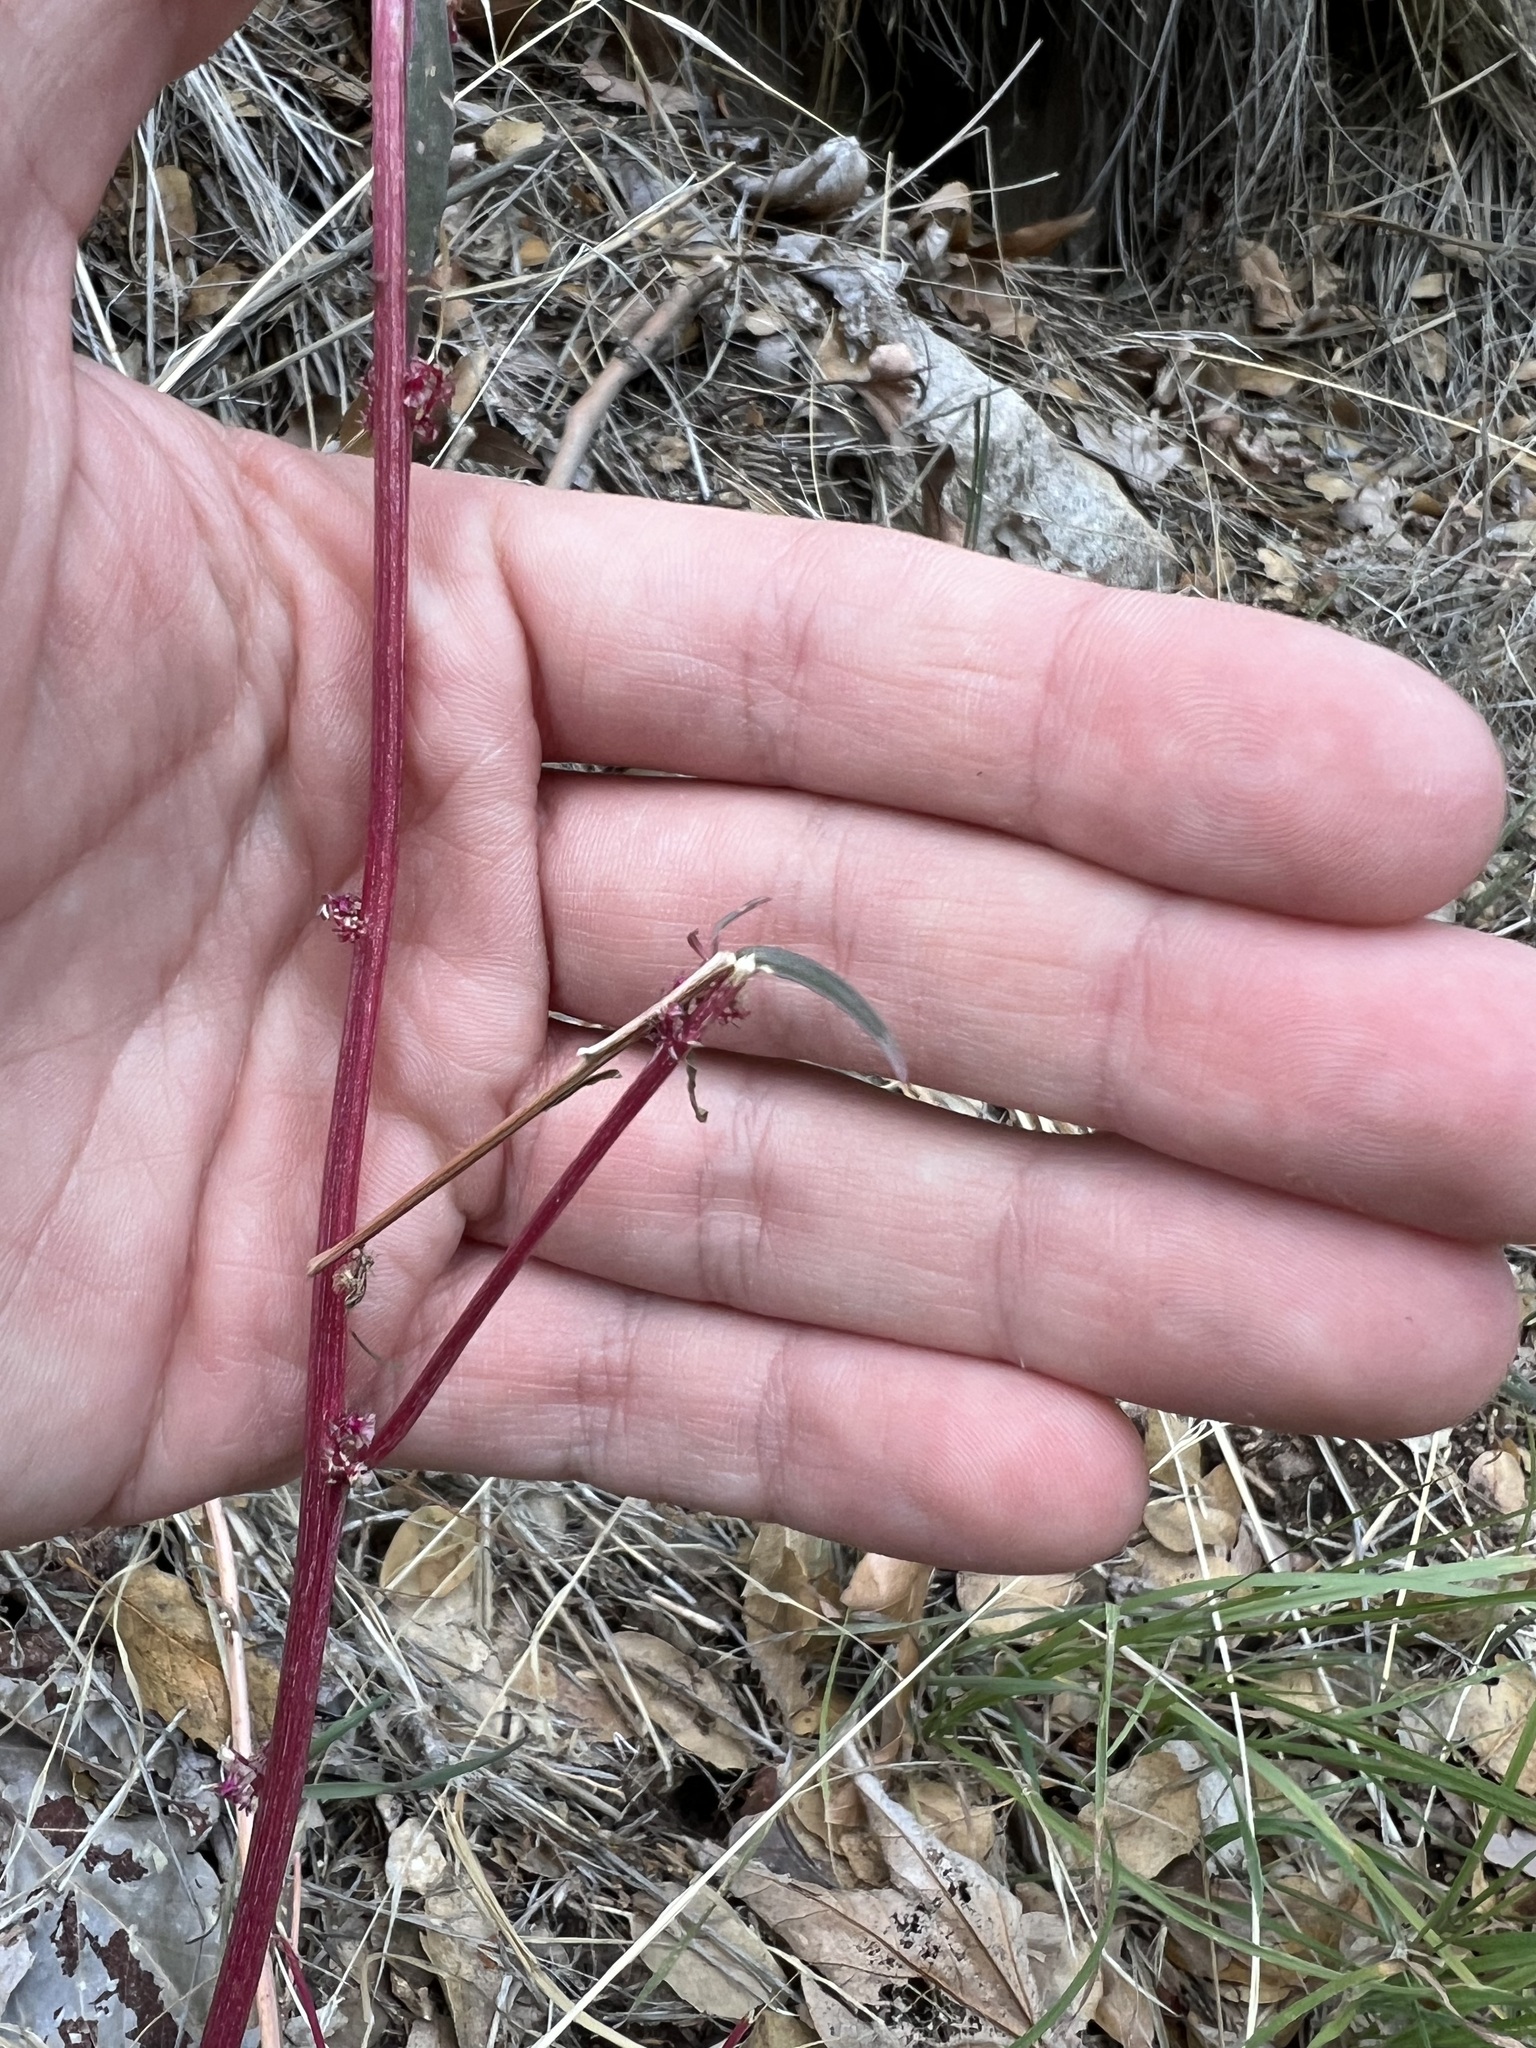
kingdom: Plantae
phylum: Tracheophyta
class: Magnoliopsida
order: Caryophyllales
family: Amaranthaceae
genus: Amaranthus
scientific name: Amaranthus fimbriatus
